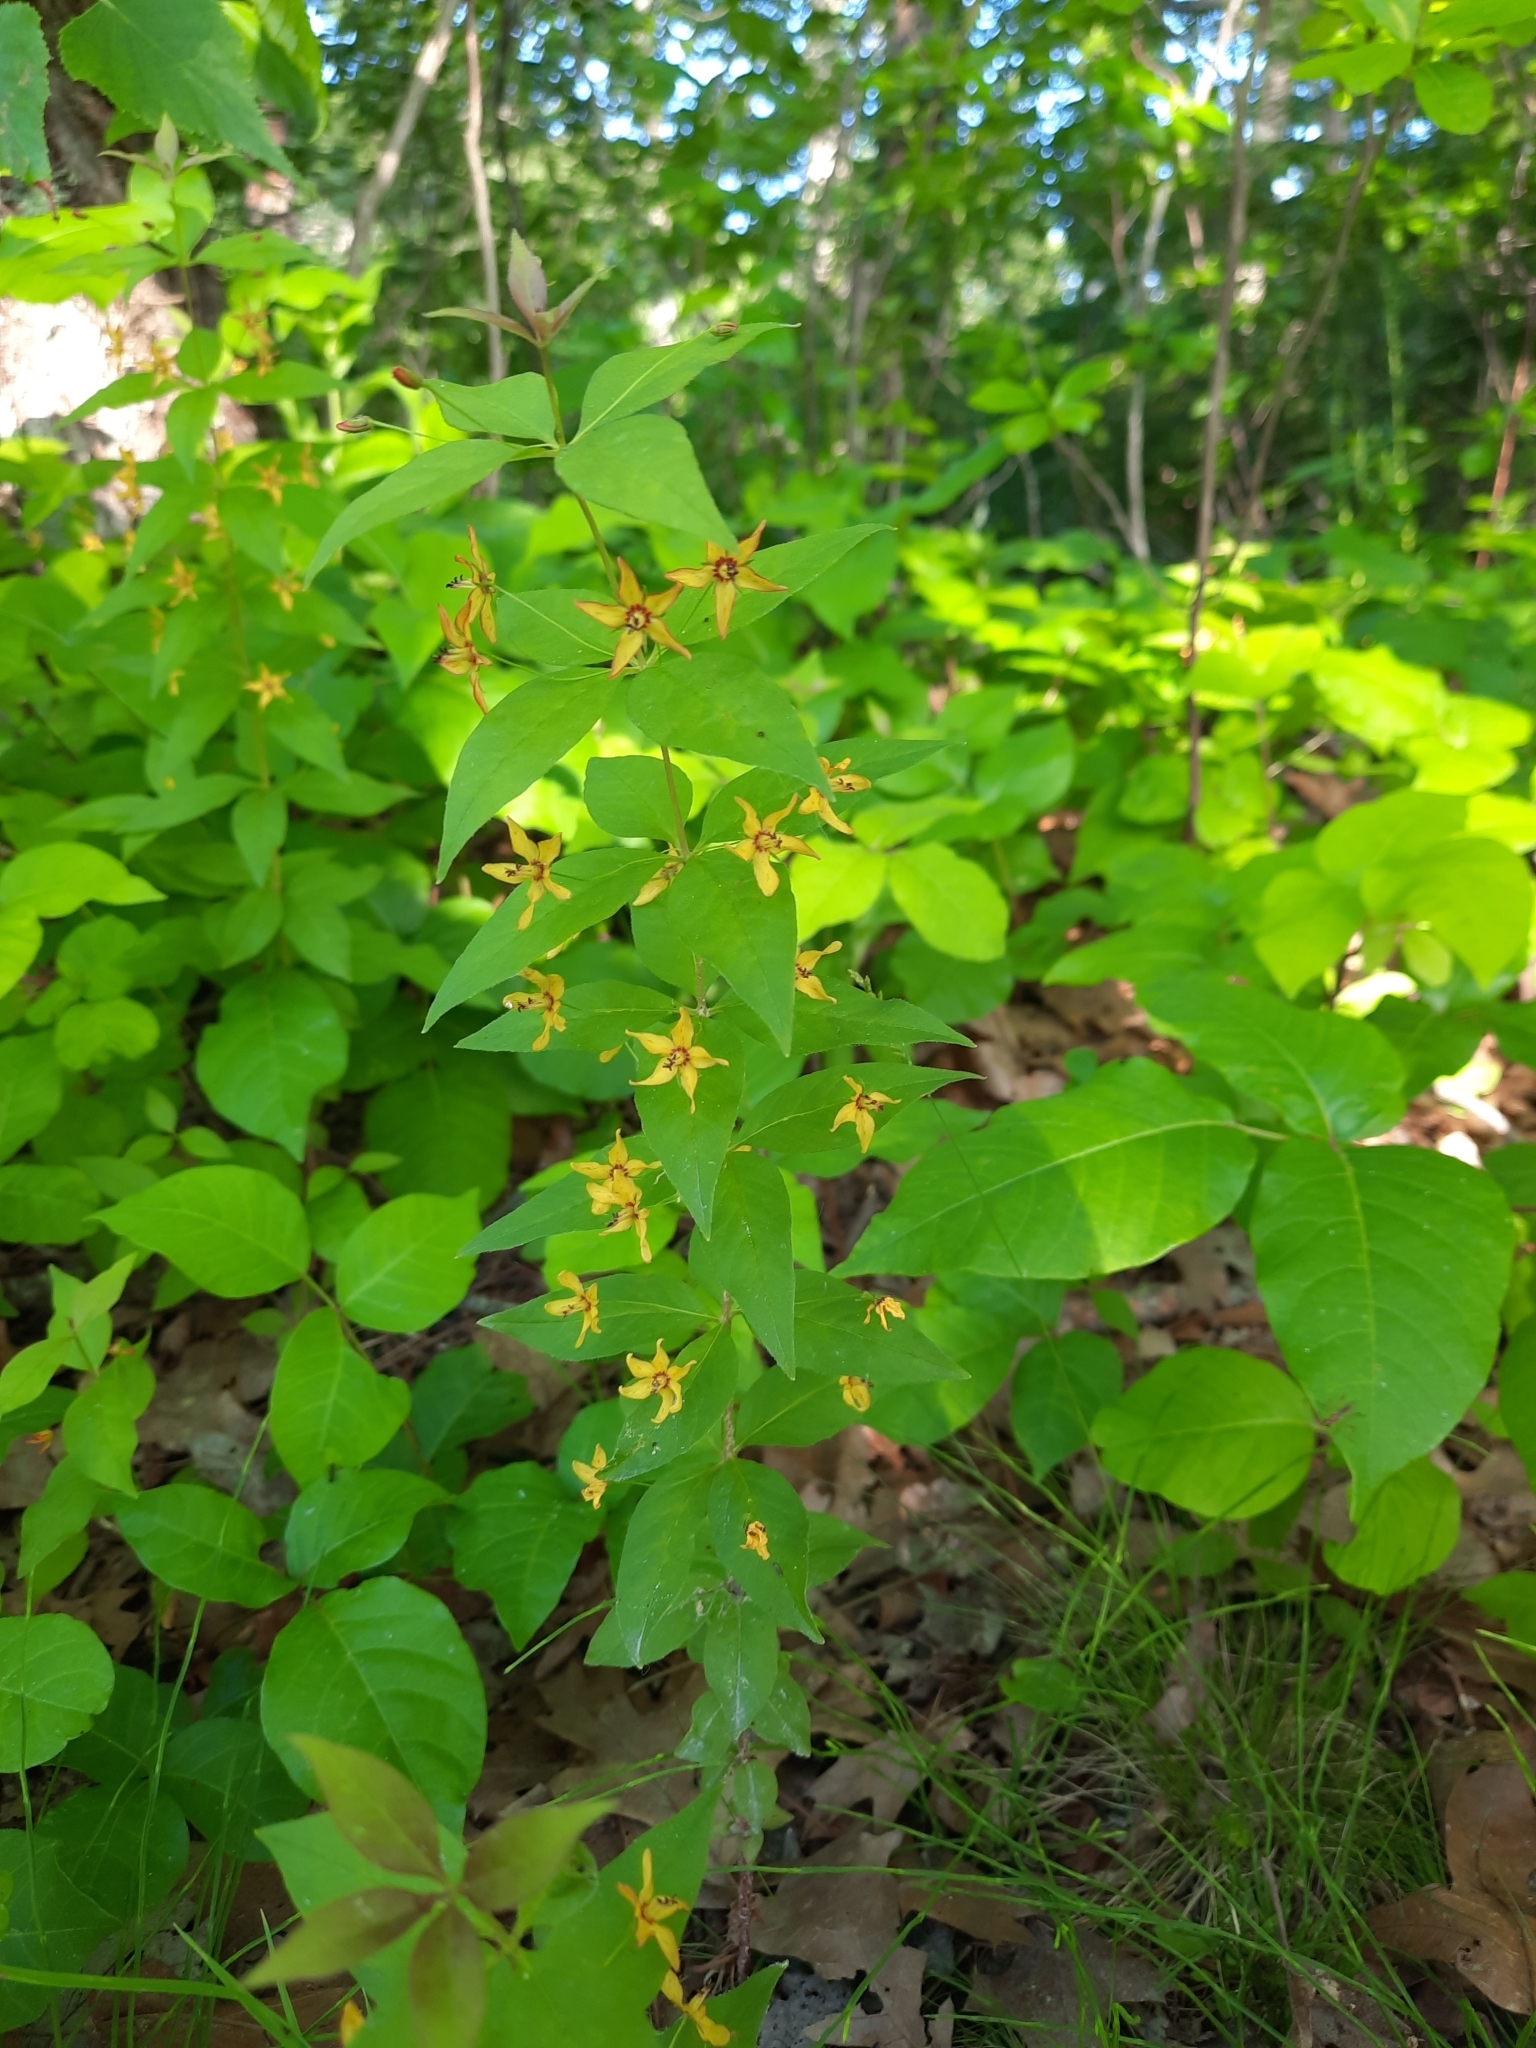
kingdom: Plantae
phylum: Tracheophyta
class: Magnoliopsida
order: Ericales
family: Primulaceae
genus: Lysimachia
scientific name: Lysimachia quadrifolia
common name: Whorled loosestrife
